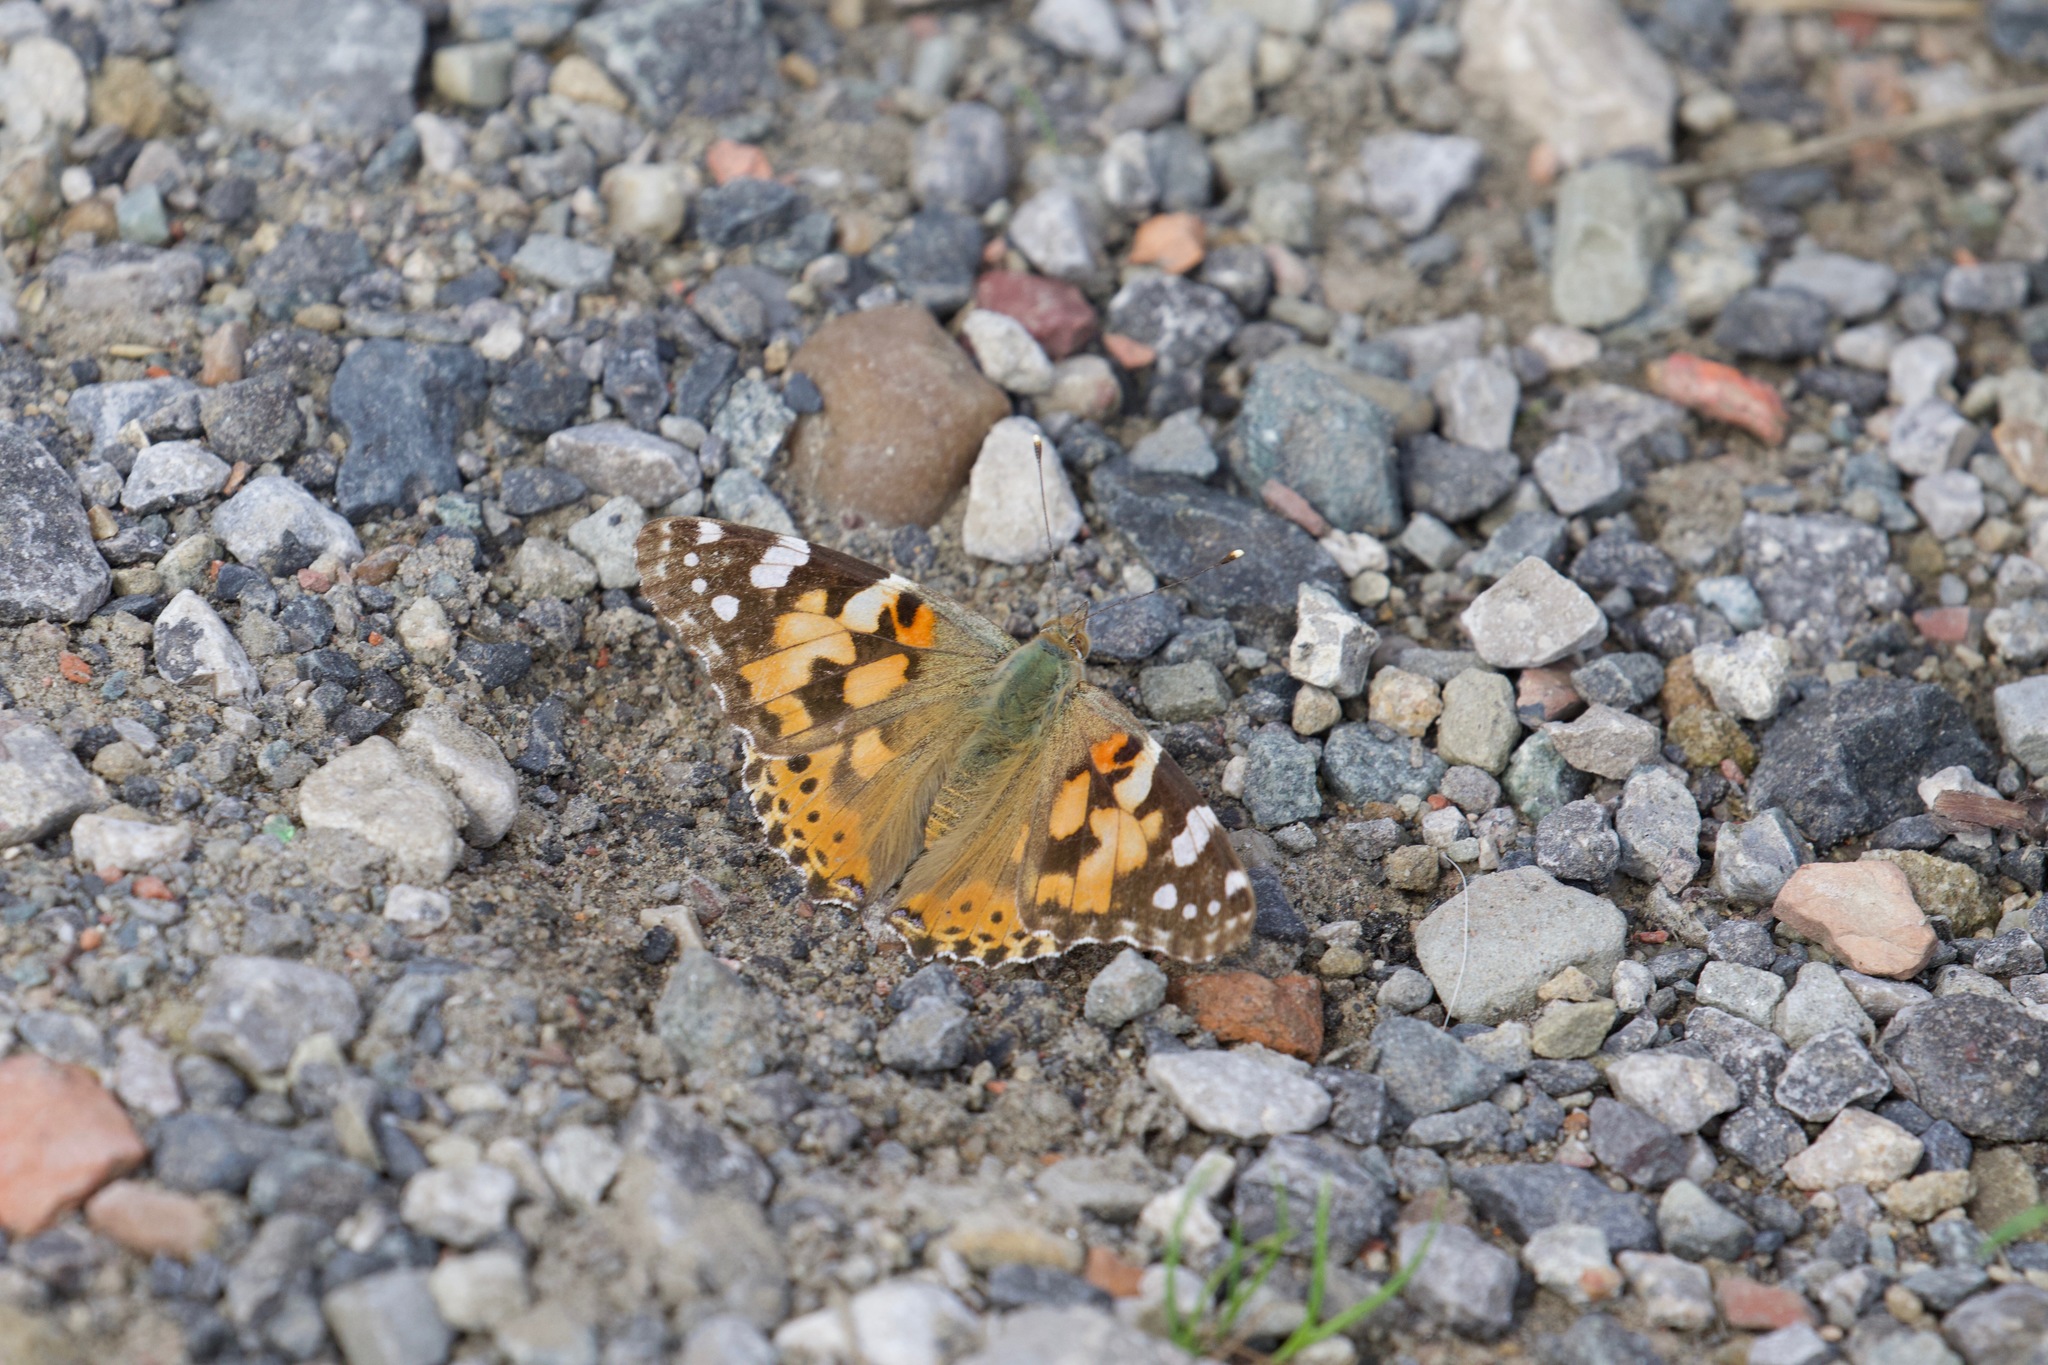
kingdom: Animalia
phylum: Arthropoda
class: Insecta
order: Lepidoptera
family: Nymphalidae
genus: Vanessa
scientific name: Vanessa cardui
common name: Painted lady
